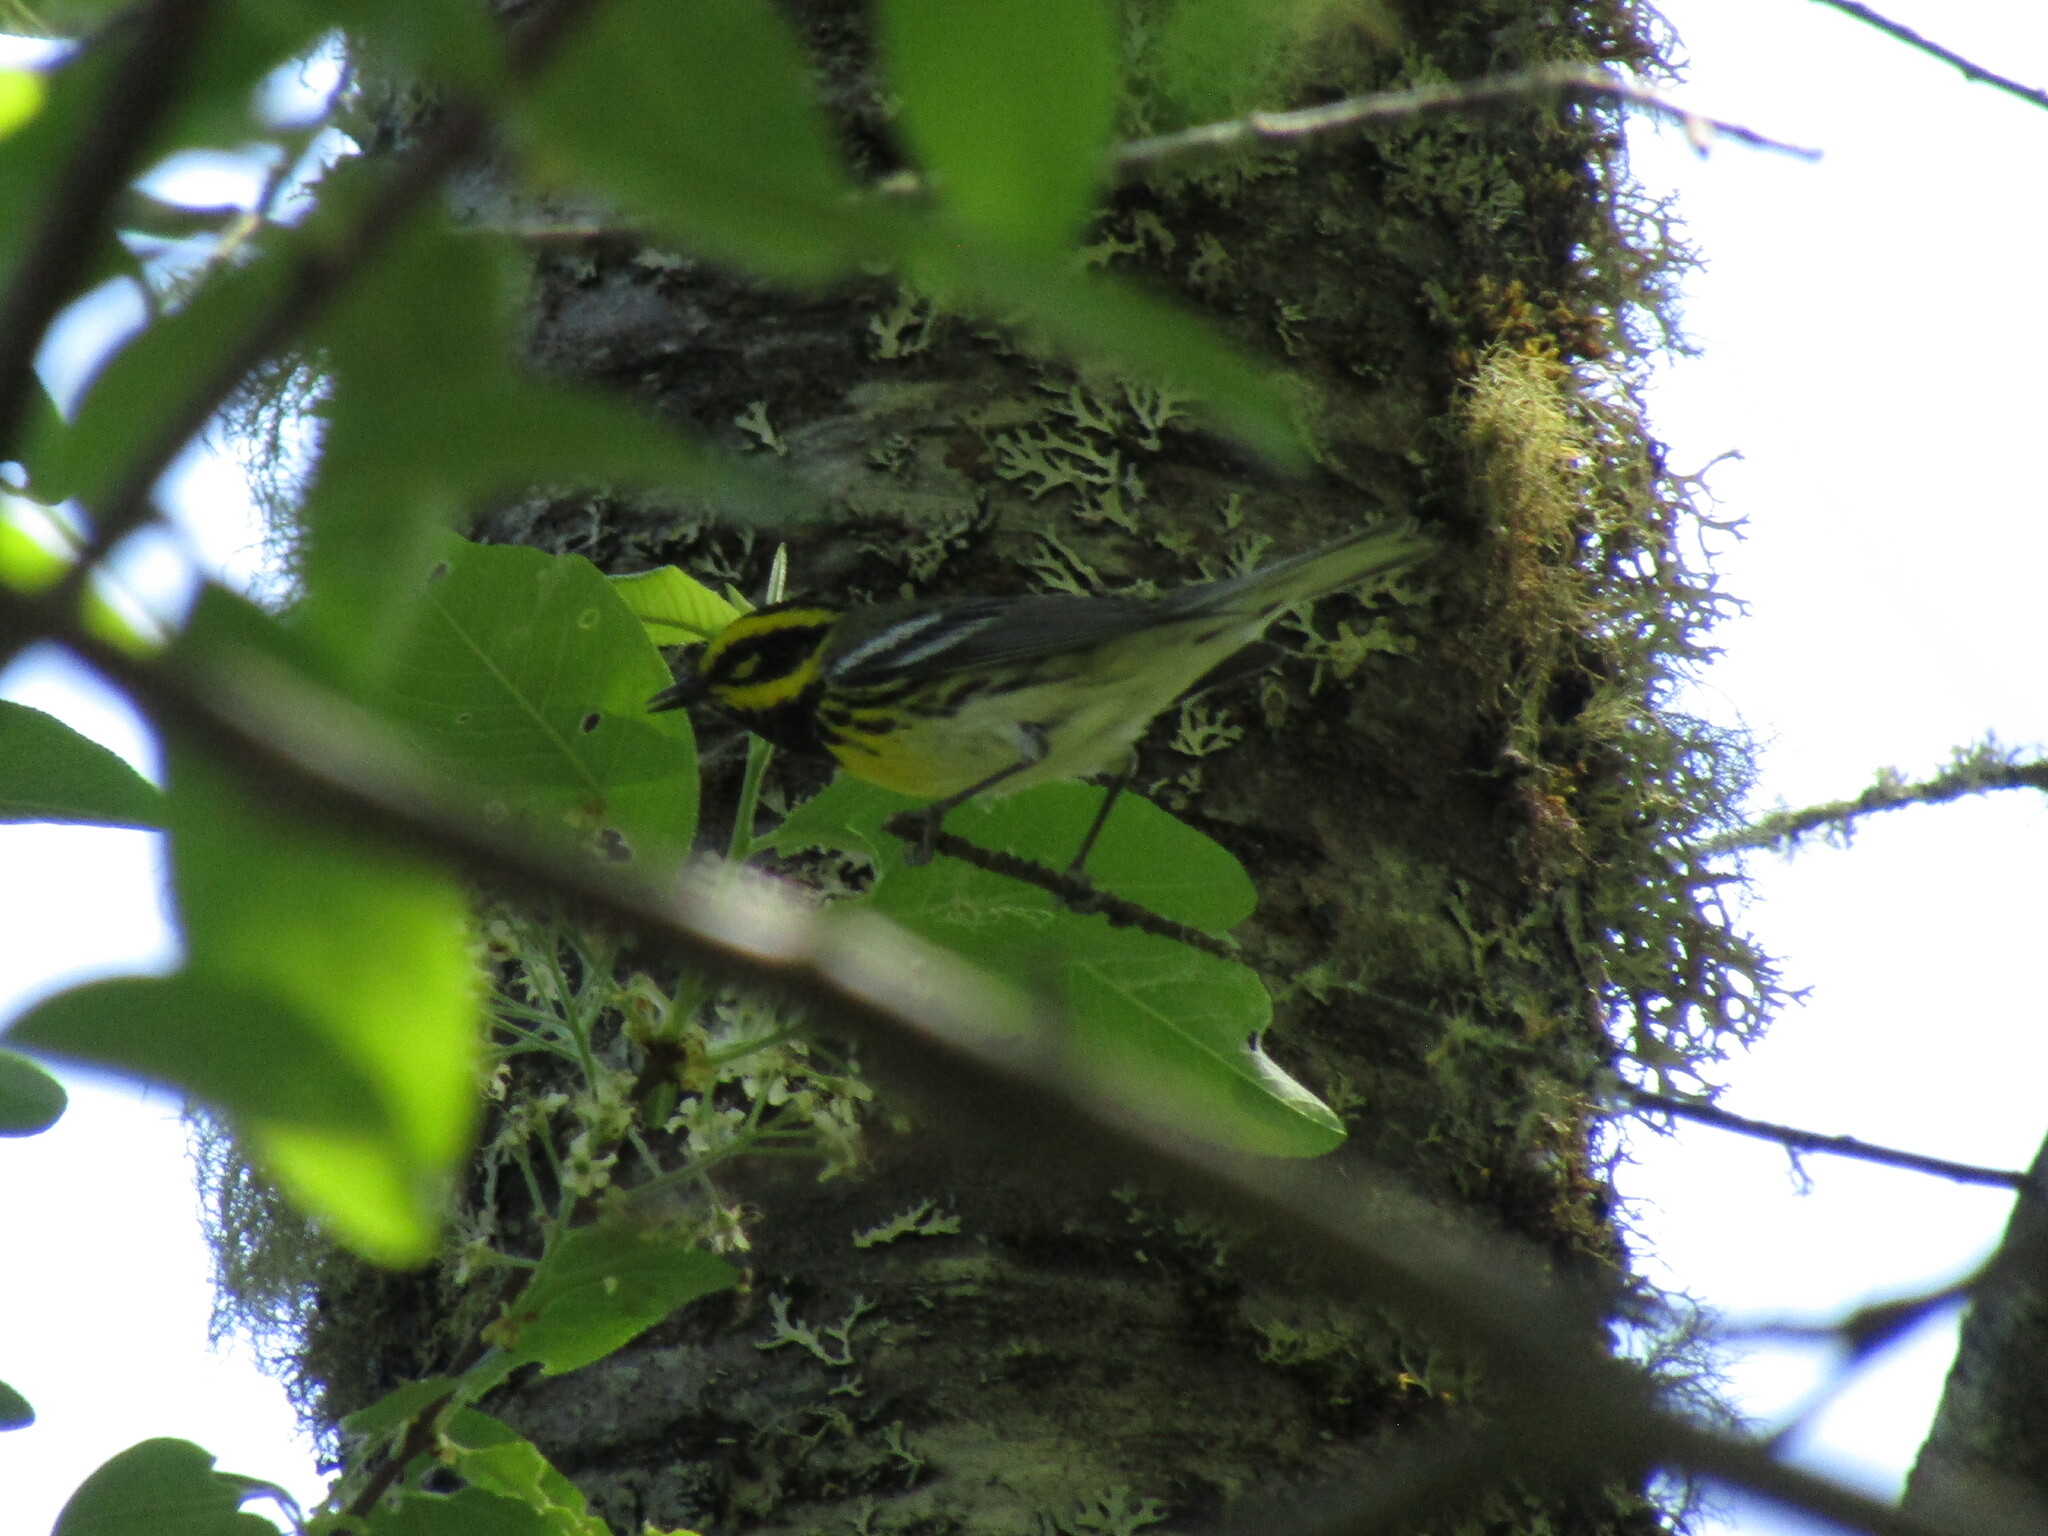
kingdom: Animalia
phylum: Chordata
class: Aves
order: Passeriformes
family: Parulidae
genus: Setophaga
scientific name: Setophaga townsendi
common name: Townsend's warbler
